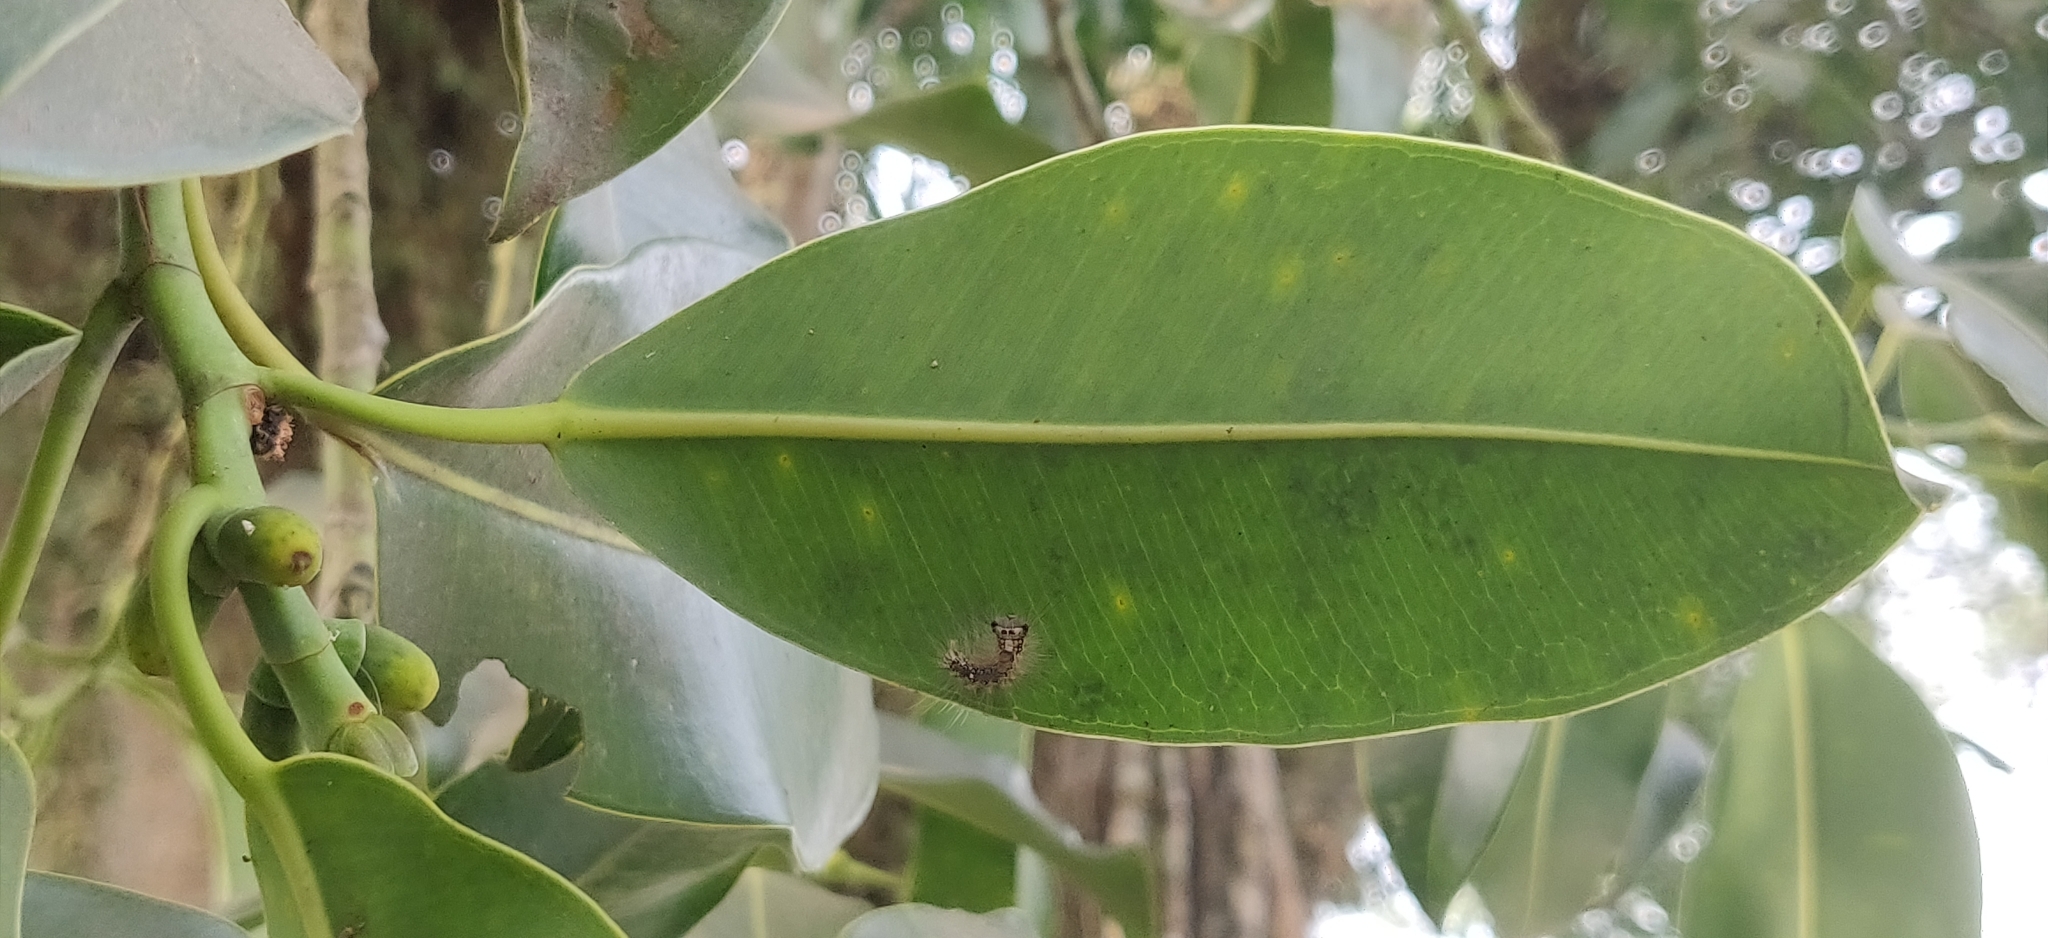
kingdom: Plantae
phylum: Tracheophyta
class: Magnoliopsida
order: Rosales
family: Moraceae
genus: Ficus
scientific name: Ficus elastica
